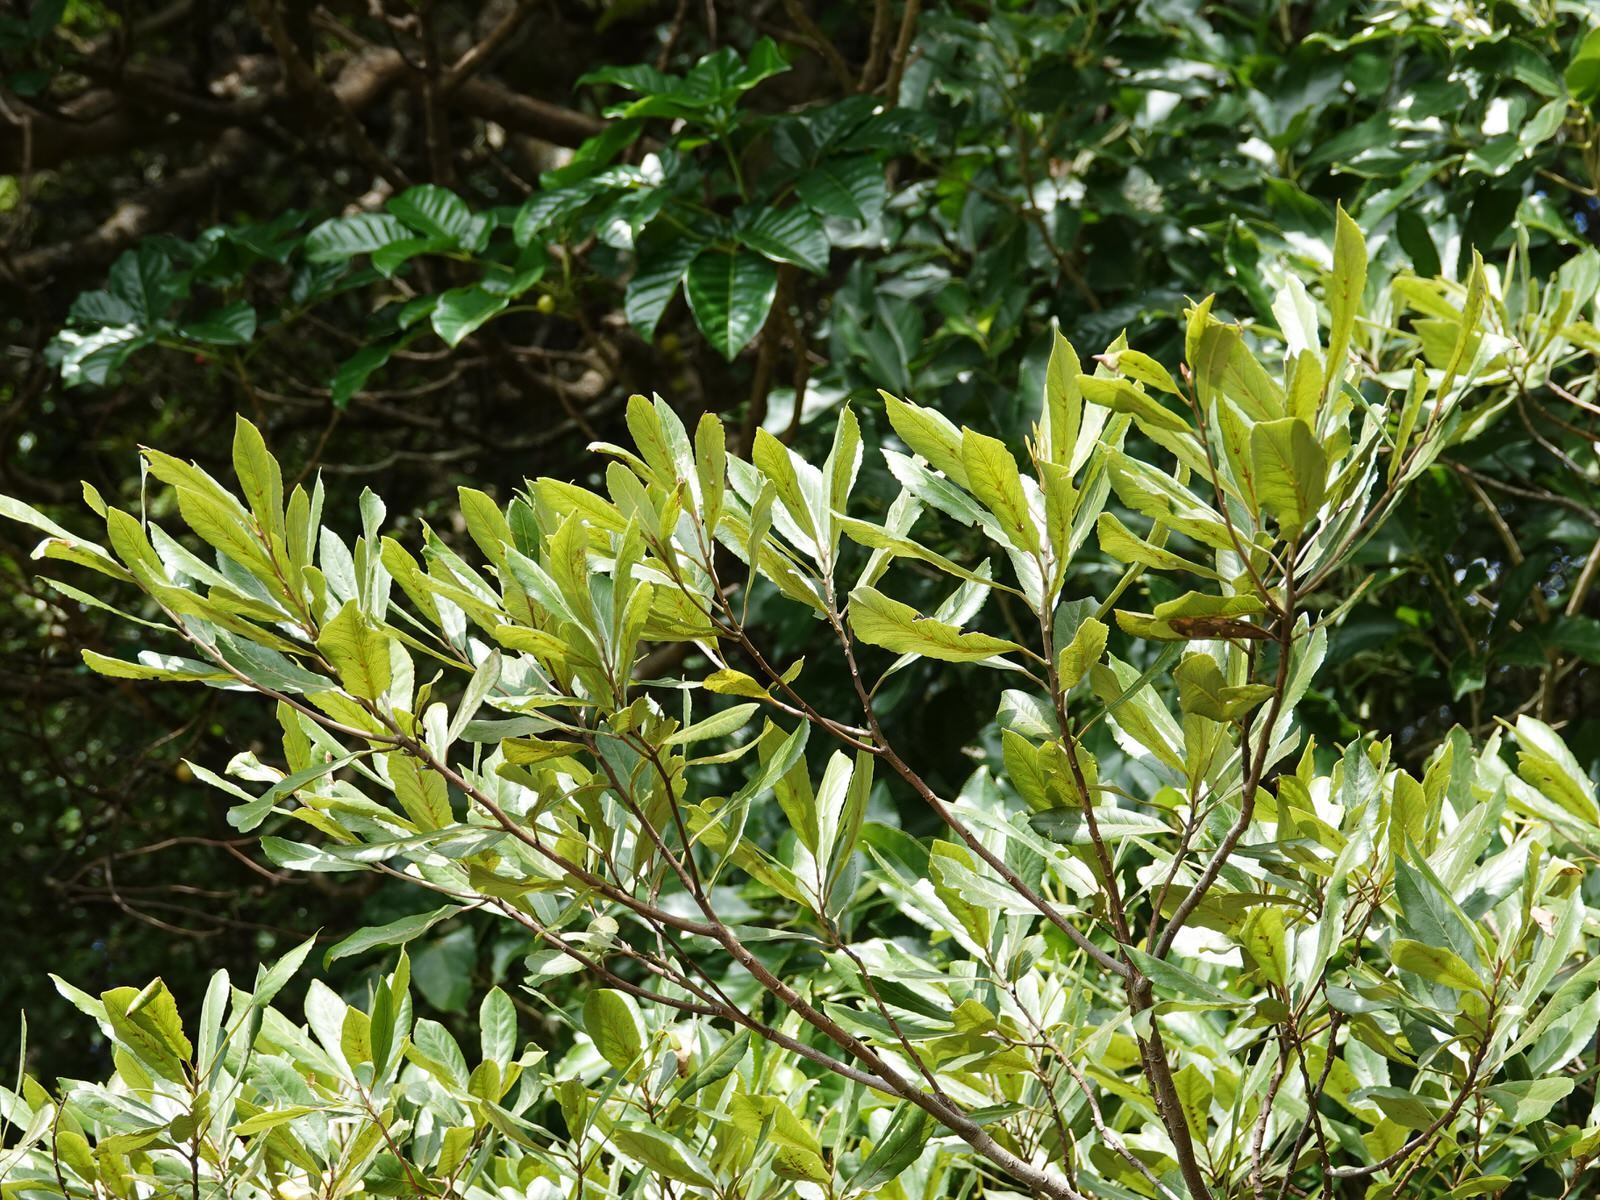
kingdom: Plantae
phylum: Tracheophyta
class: Magnoliopsida
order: Oxalidales
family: Elaeocarpaceae
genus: Elaeocarpus
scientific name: Elaeocarpus dentatus
